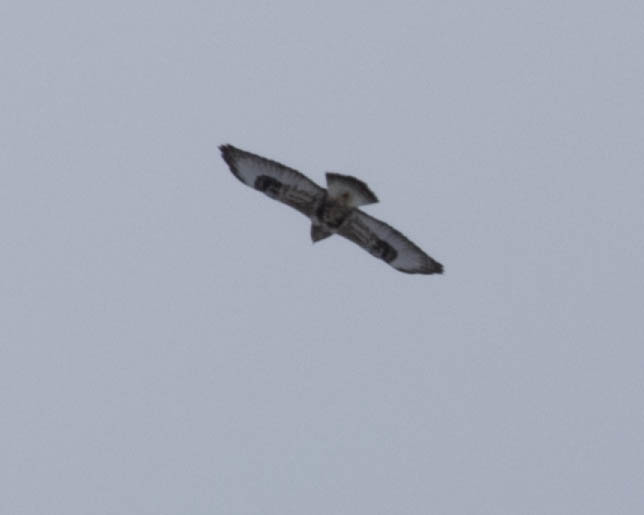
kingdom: Animalia
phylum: Chordata
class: Aves
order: Accipitriformes
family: Accipitridae
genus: Buteo
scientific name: Buteo lagopus
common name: Rough-legged buzzard
